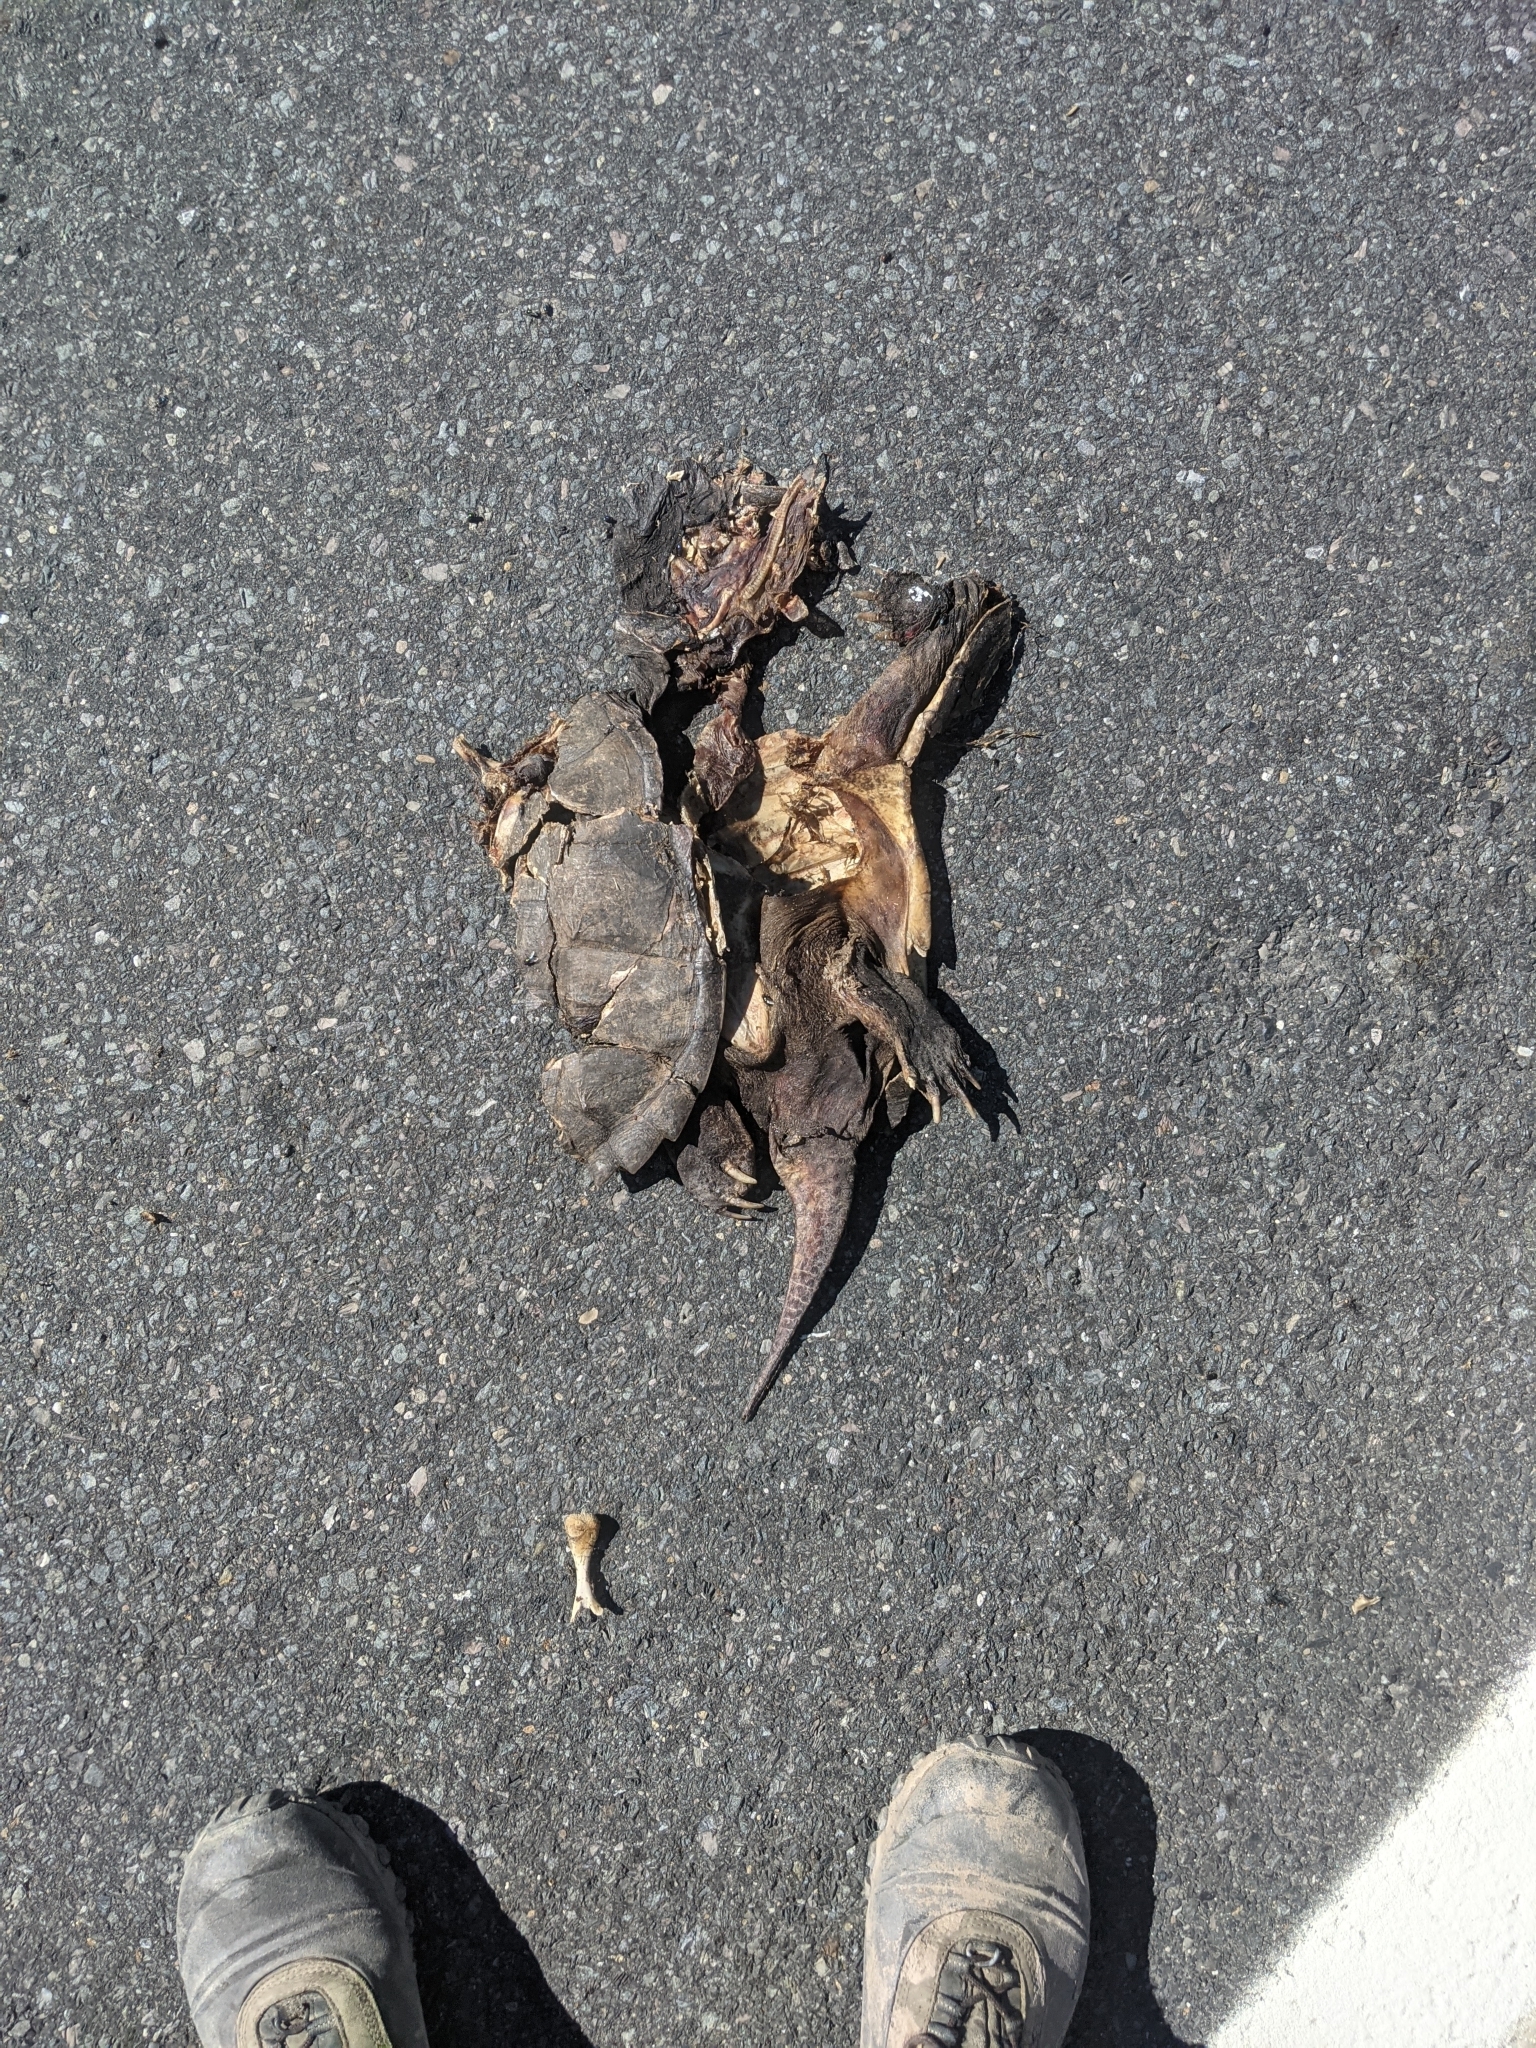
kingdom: Animalia
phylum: Chordata
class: Testudines
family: Chelydridae
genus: Chelydra
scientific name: Chelydra serpentina
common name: Common snapping turtle
